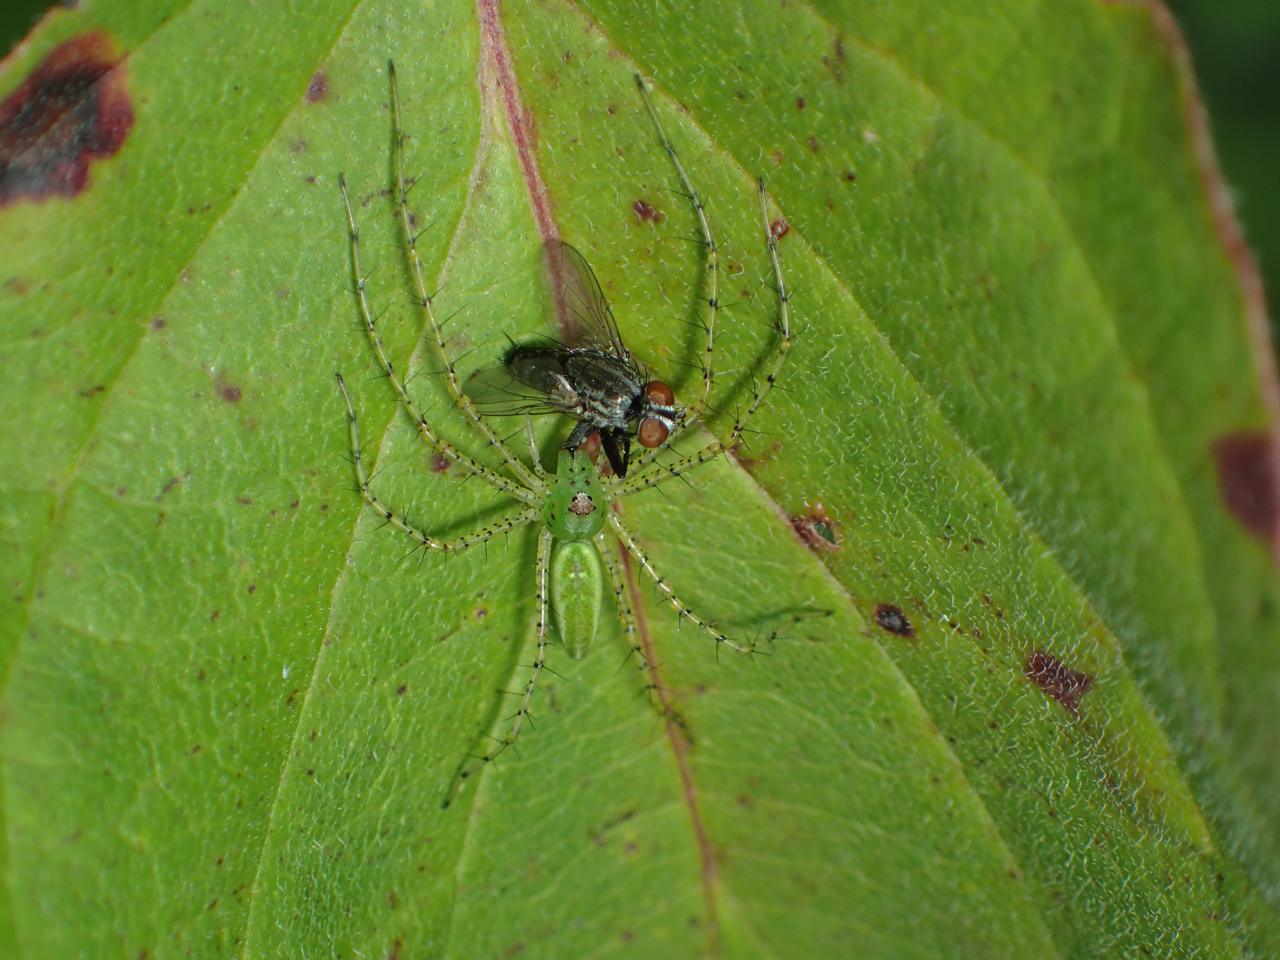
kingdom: Animalia
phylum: Arthropoda
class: Arachnida
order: Araneae
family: Oxyopidae
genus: Peucetia
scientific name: Peucetia viridans
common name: Lynx spiders
